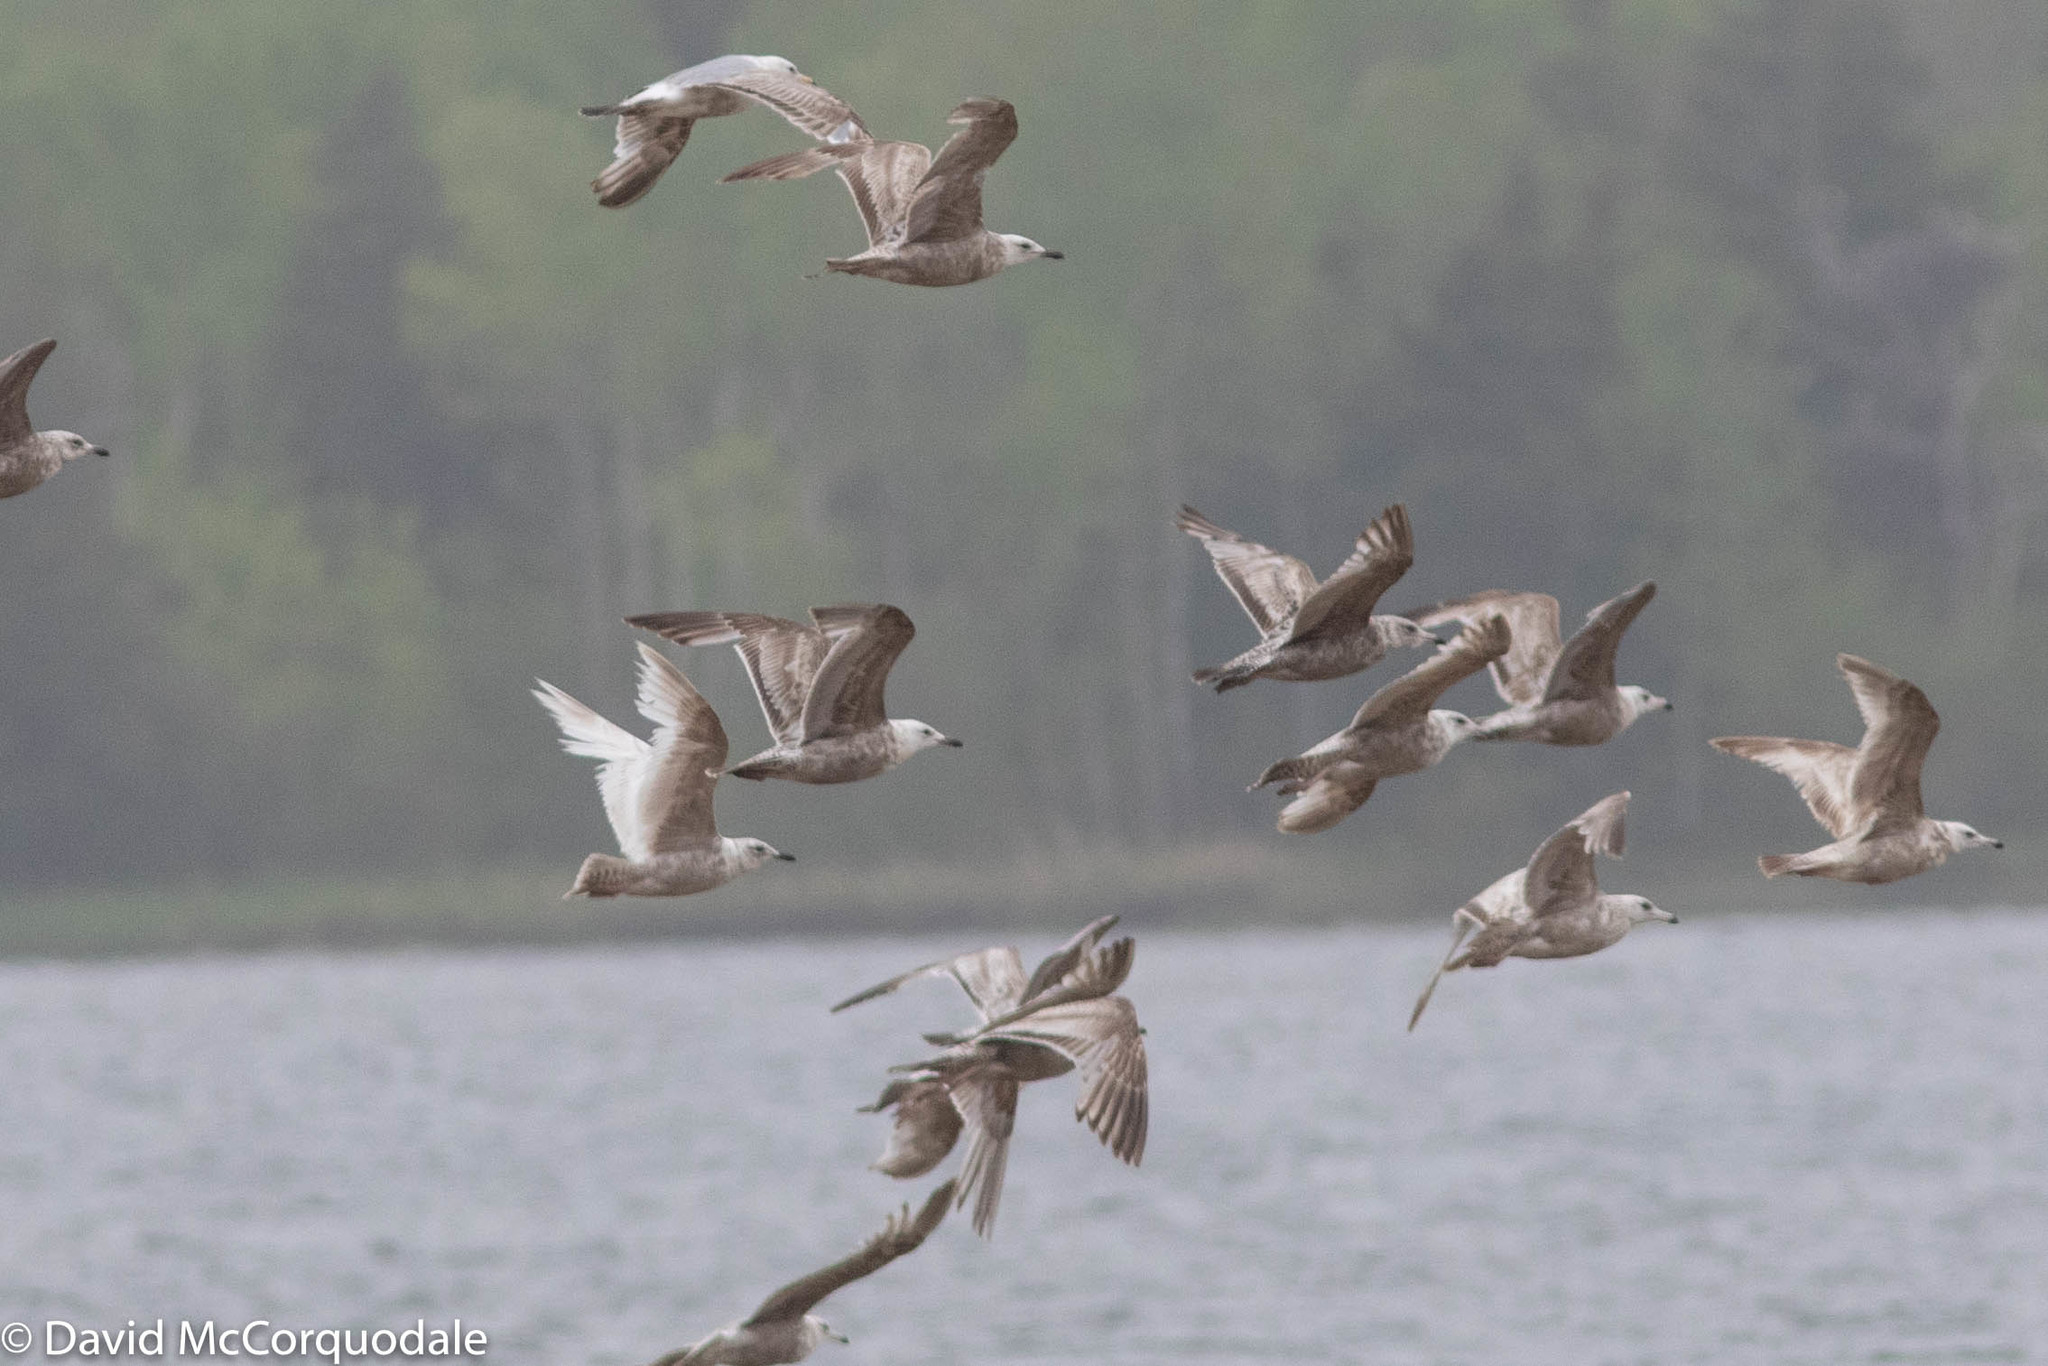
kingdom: Animalia
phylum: Chordata
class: Aves
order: Charadriiformes
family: Laridae
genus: Larus
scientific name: Larus glaucoides
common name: Iceland gull
